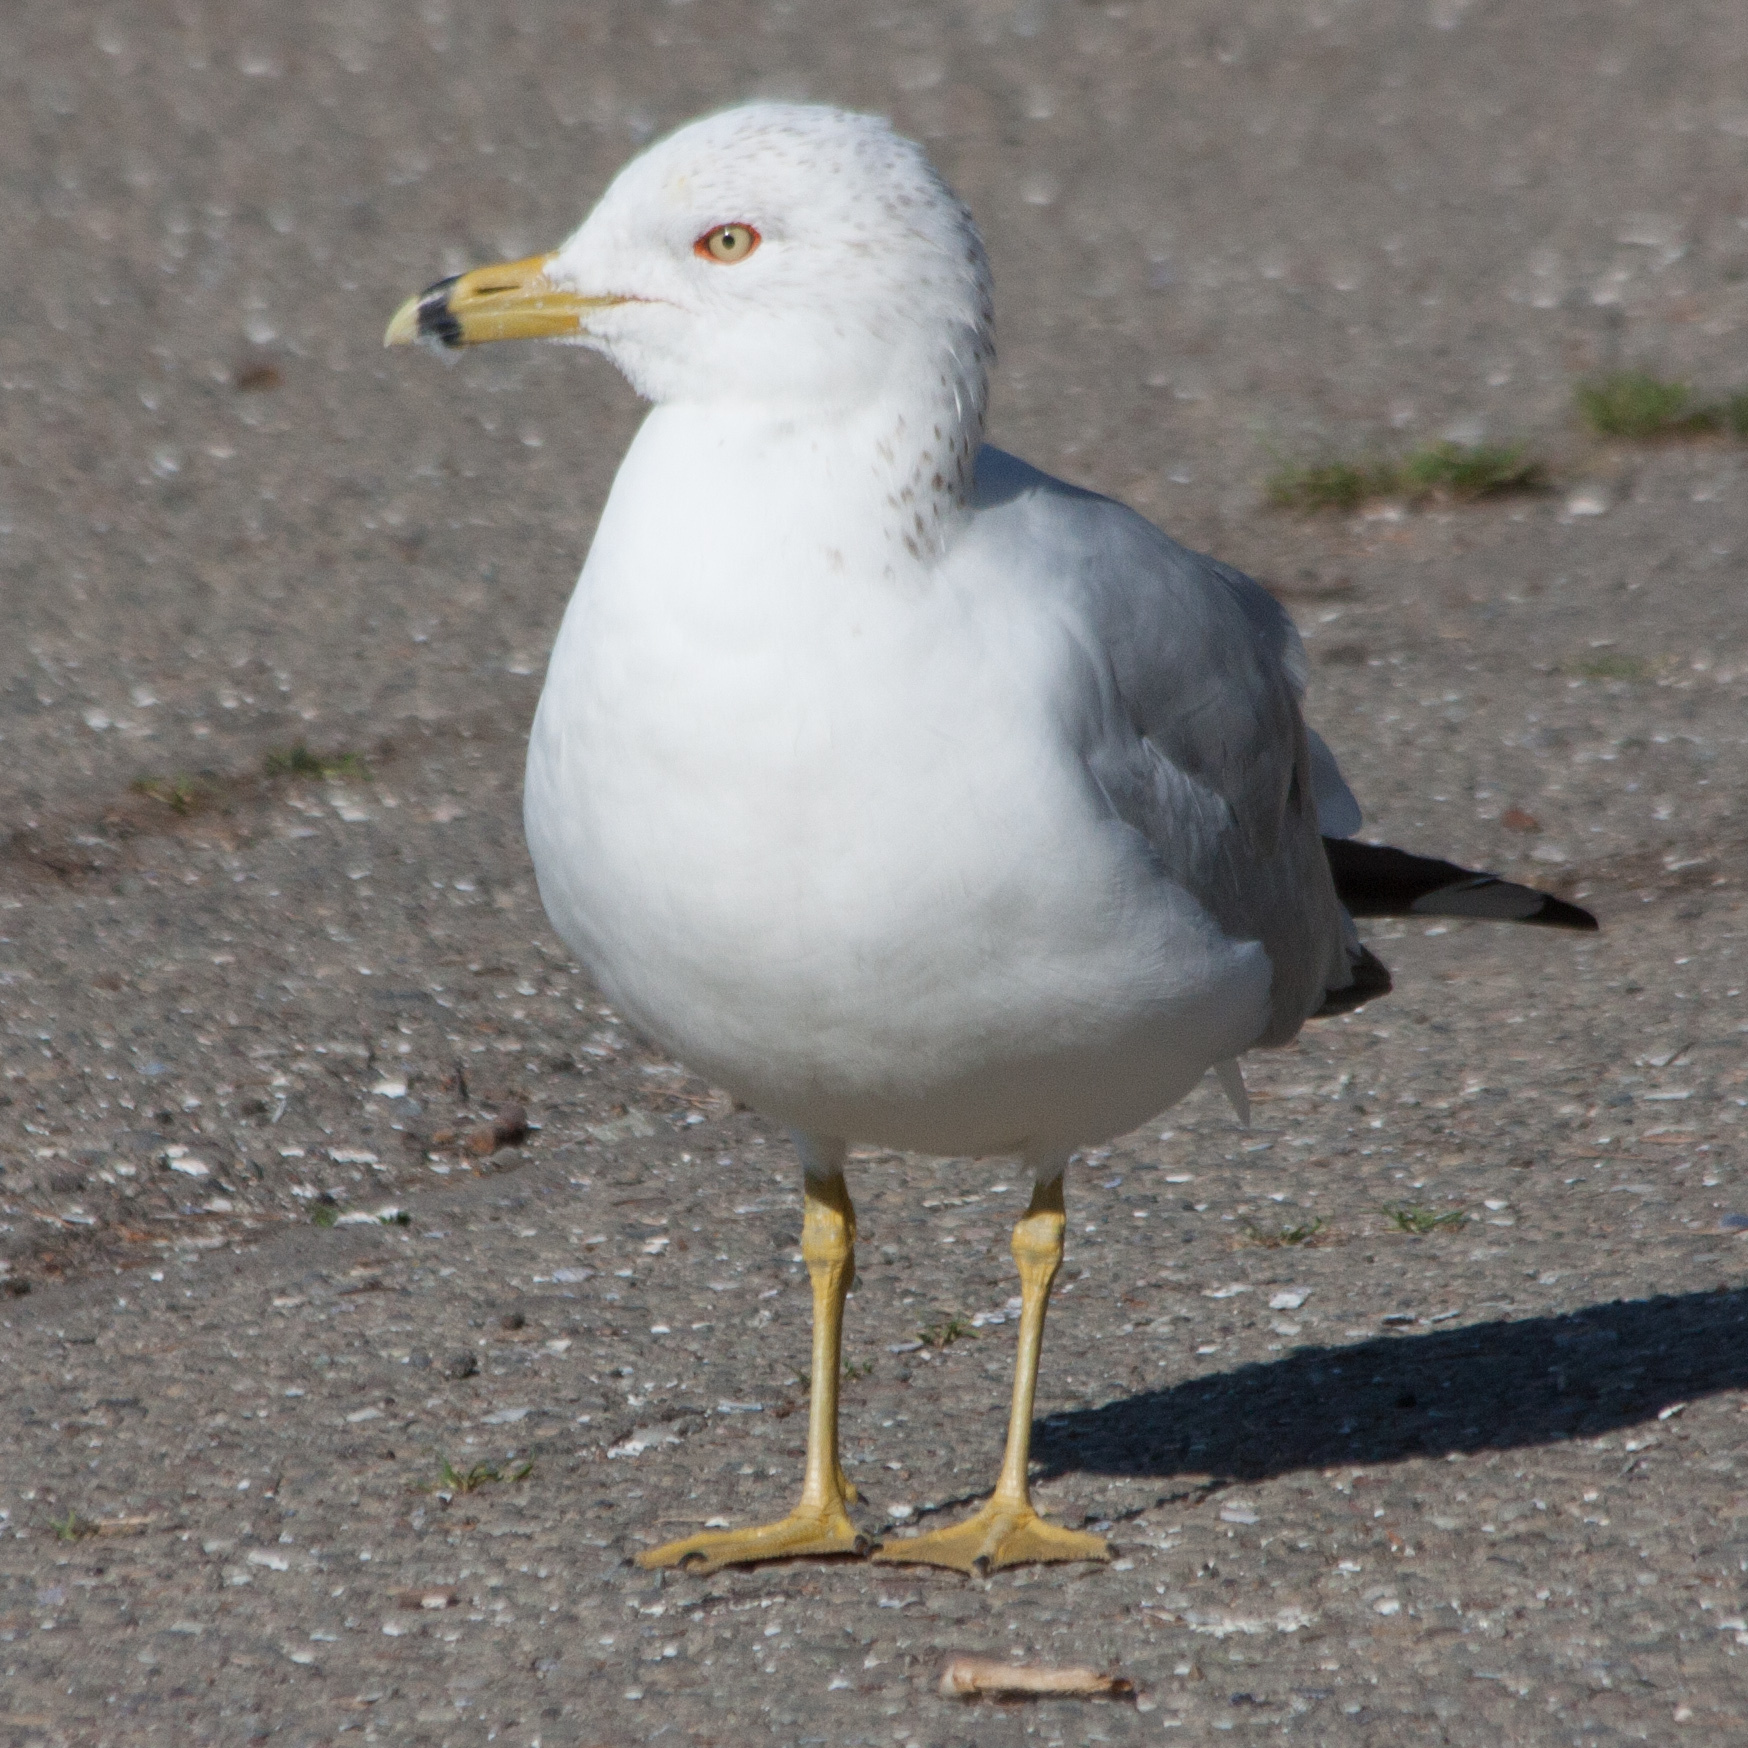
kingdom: Animalia
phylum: Chordata
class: Aves
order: Charadriiformes
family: Laridae
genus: Larus
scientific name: Larus delawarensis
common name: Ring-billed gull
